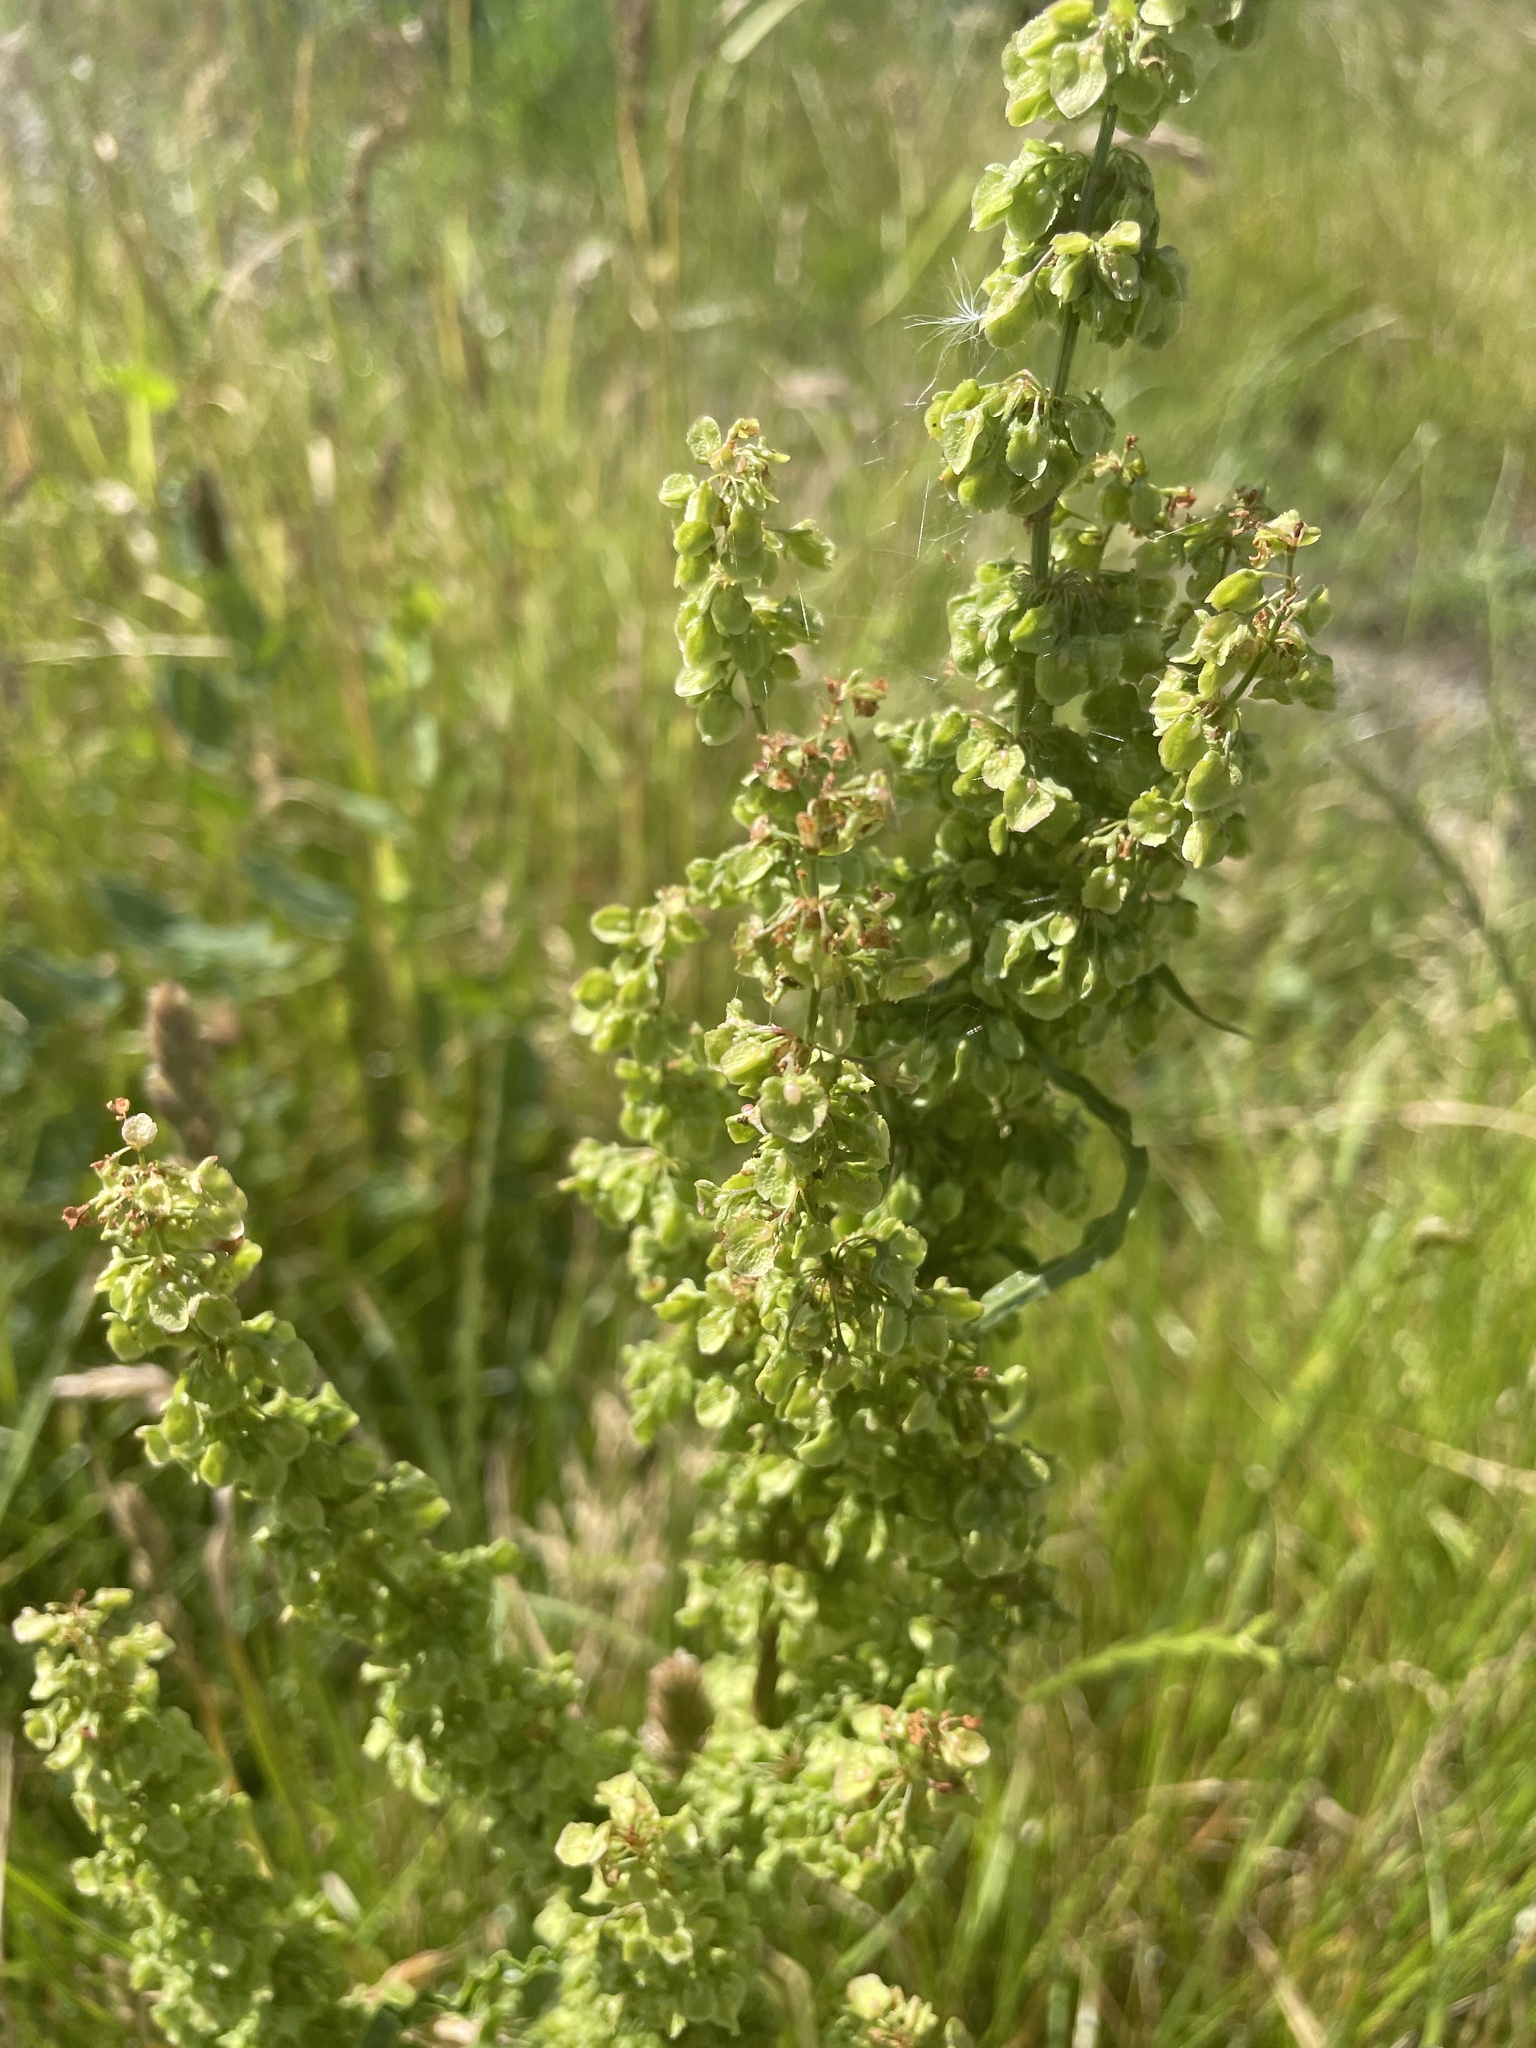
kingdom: Plantae
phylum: Tracheophyta
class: Magnoliopsida
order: Caryophyllales
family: Polygonaceae
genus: Rumex
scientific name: Rumex crispus
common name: Curled dock
